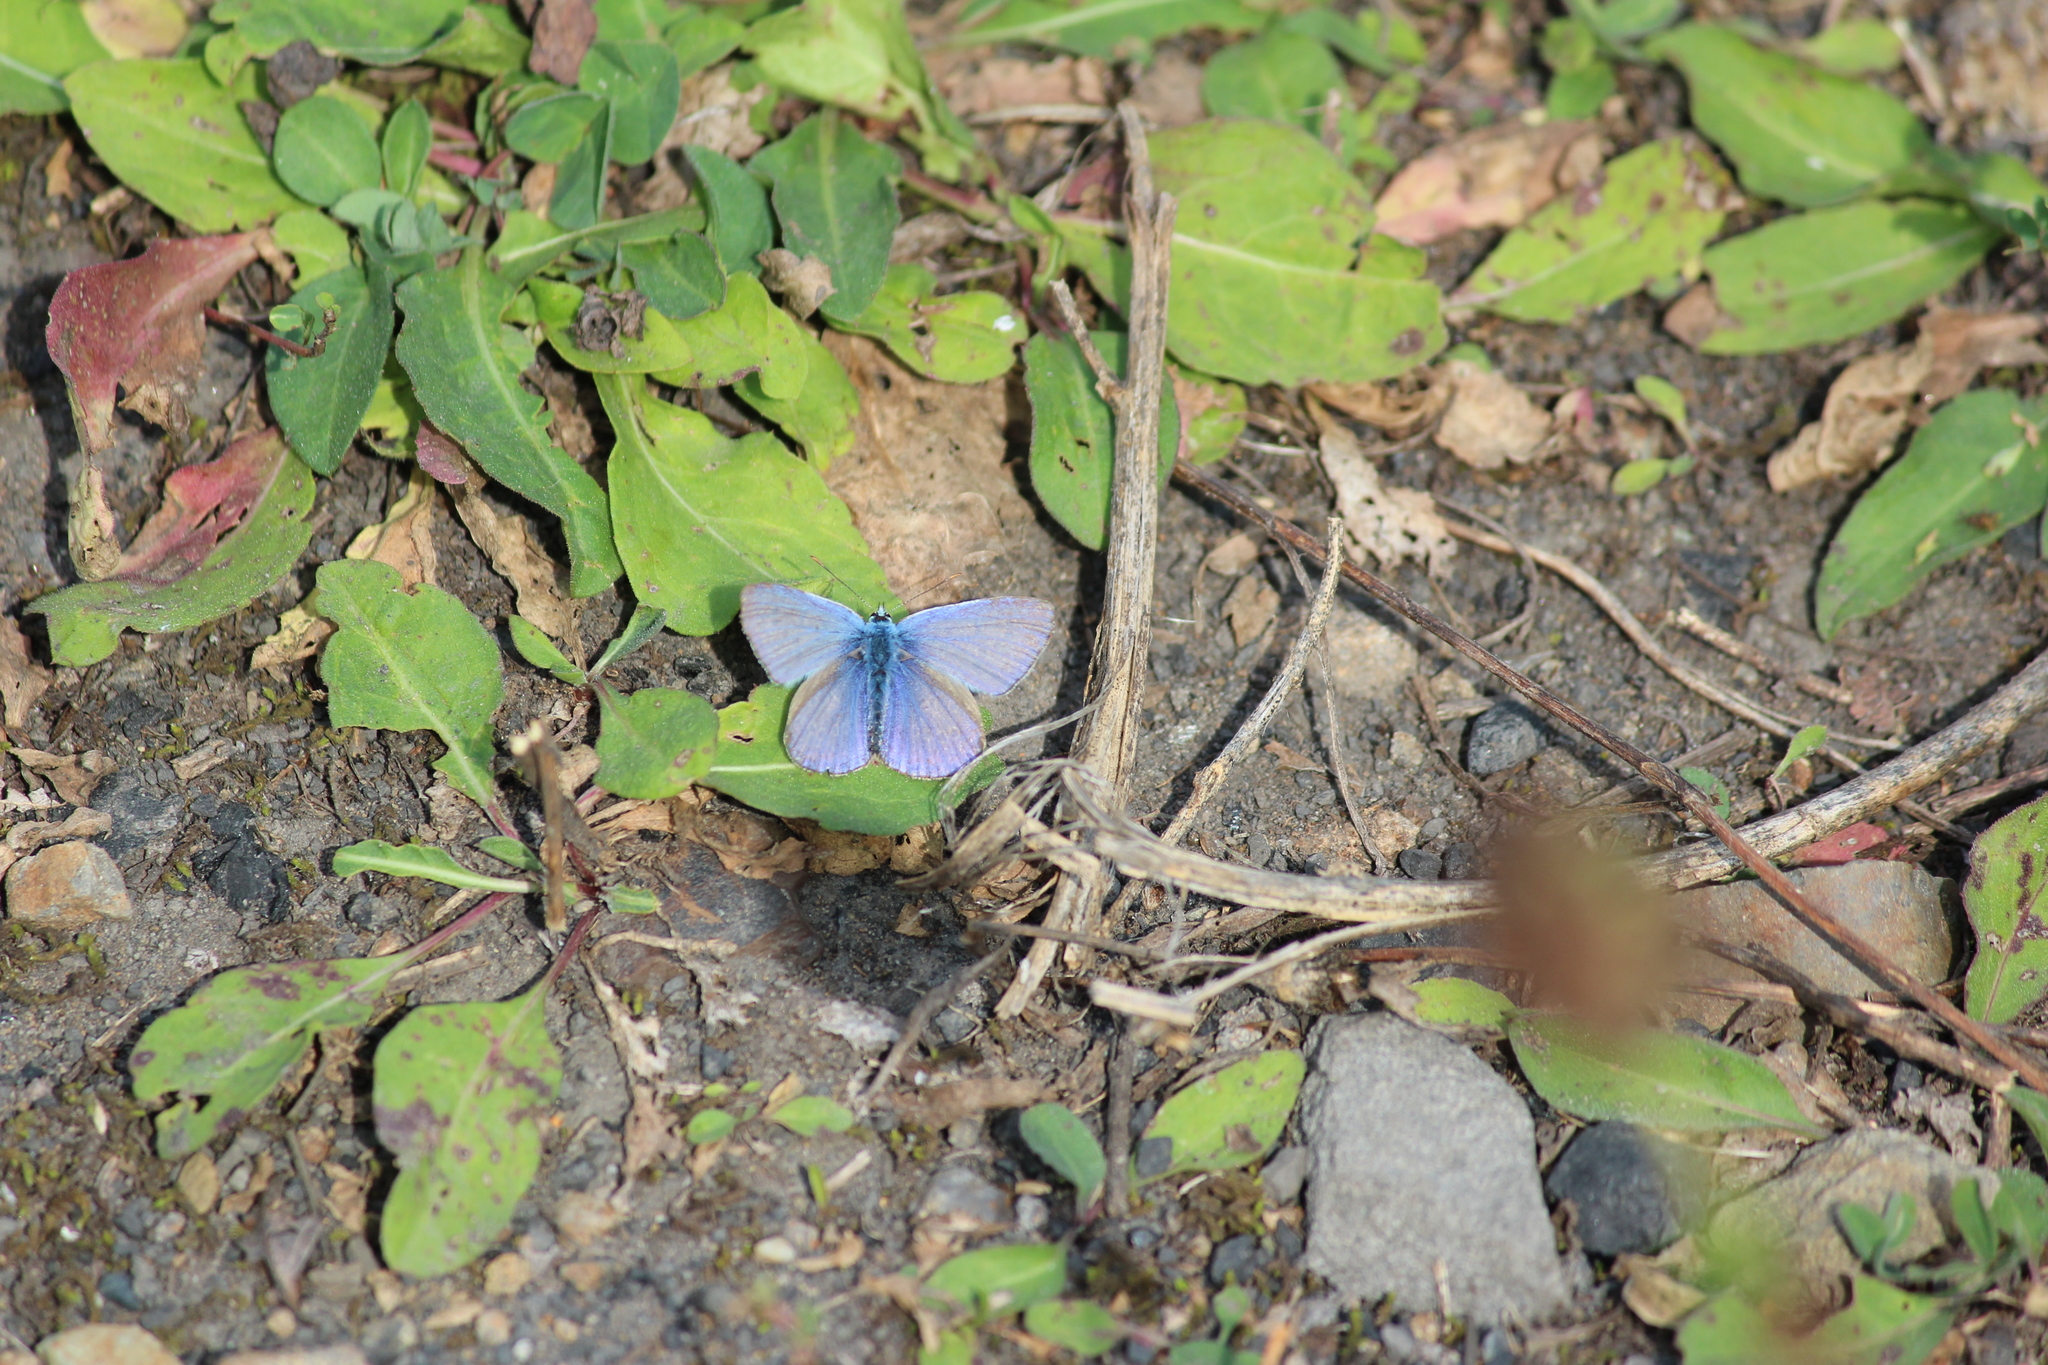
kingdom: Animalia
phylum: Arthropoda
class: Insecta
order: Lepidoptera
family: Lycaenidae
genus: Polyommatus
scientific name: Polyommatus icarus
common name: Common blue
